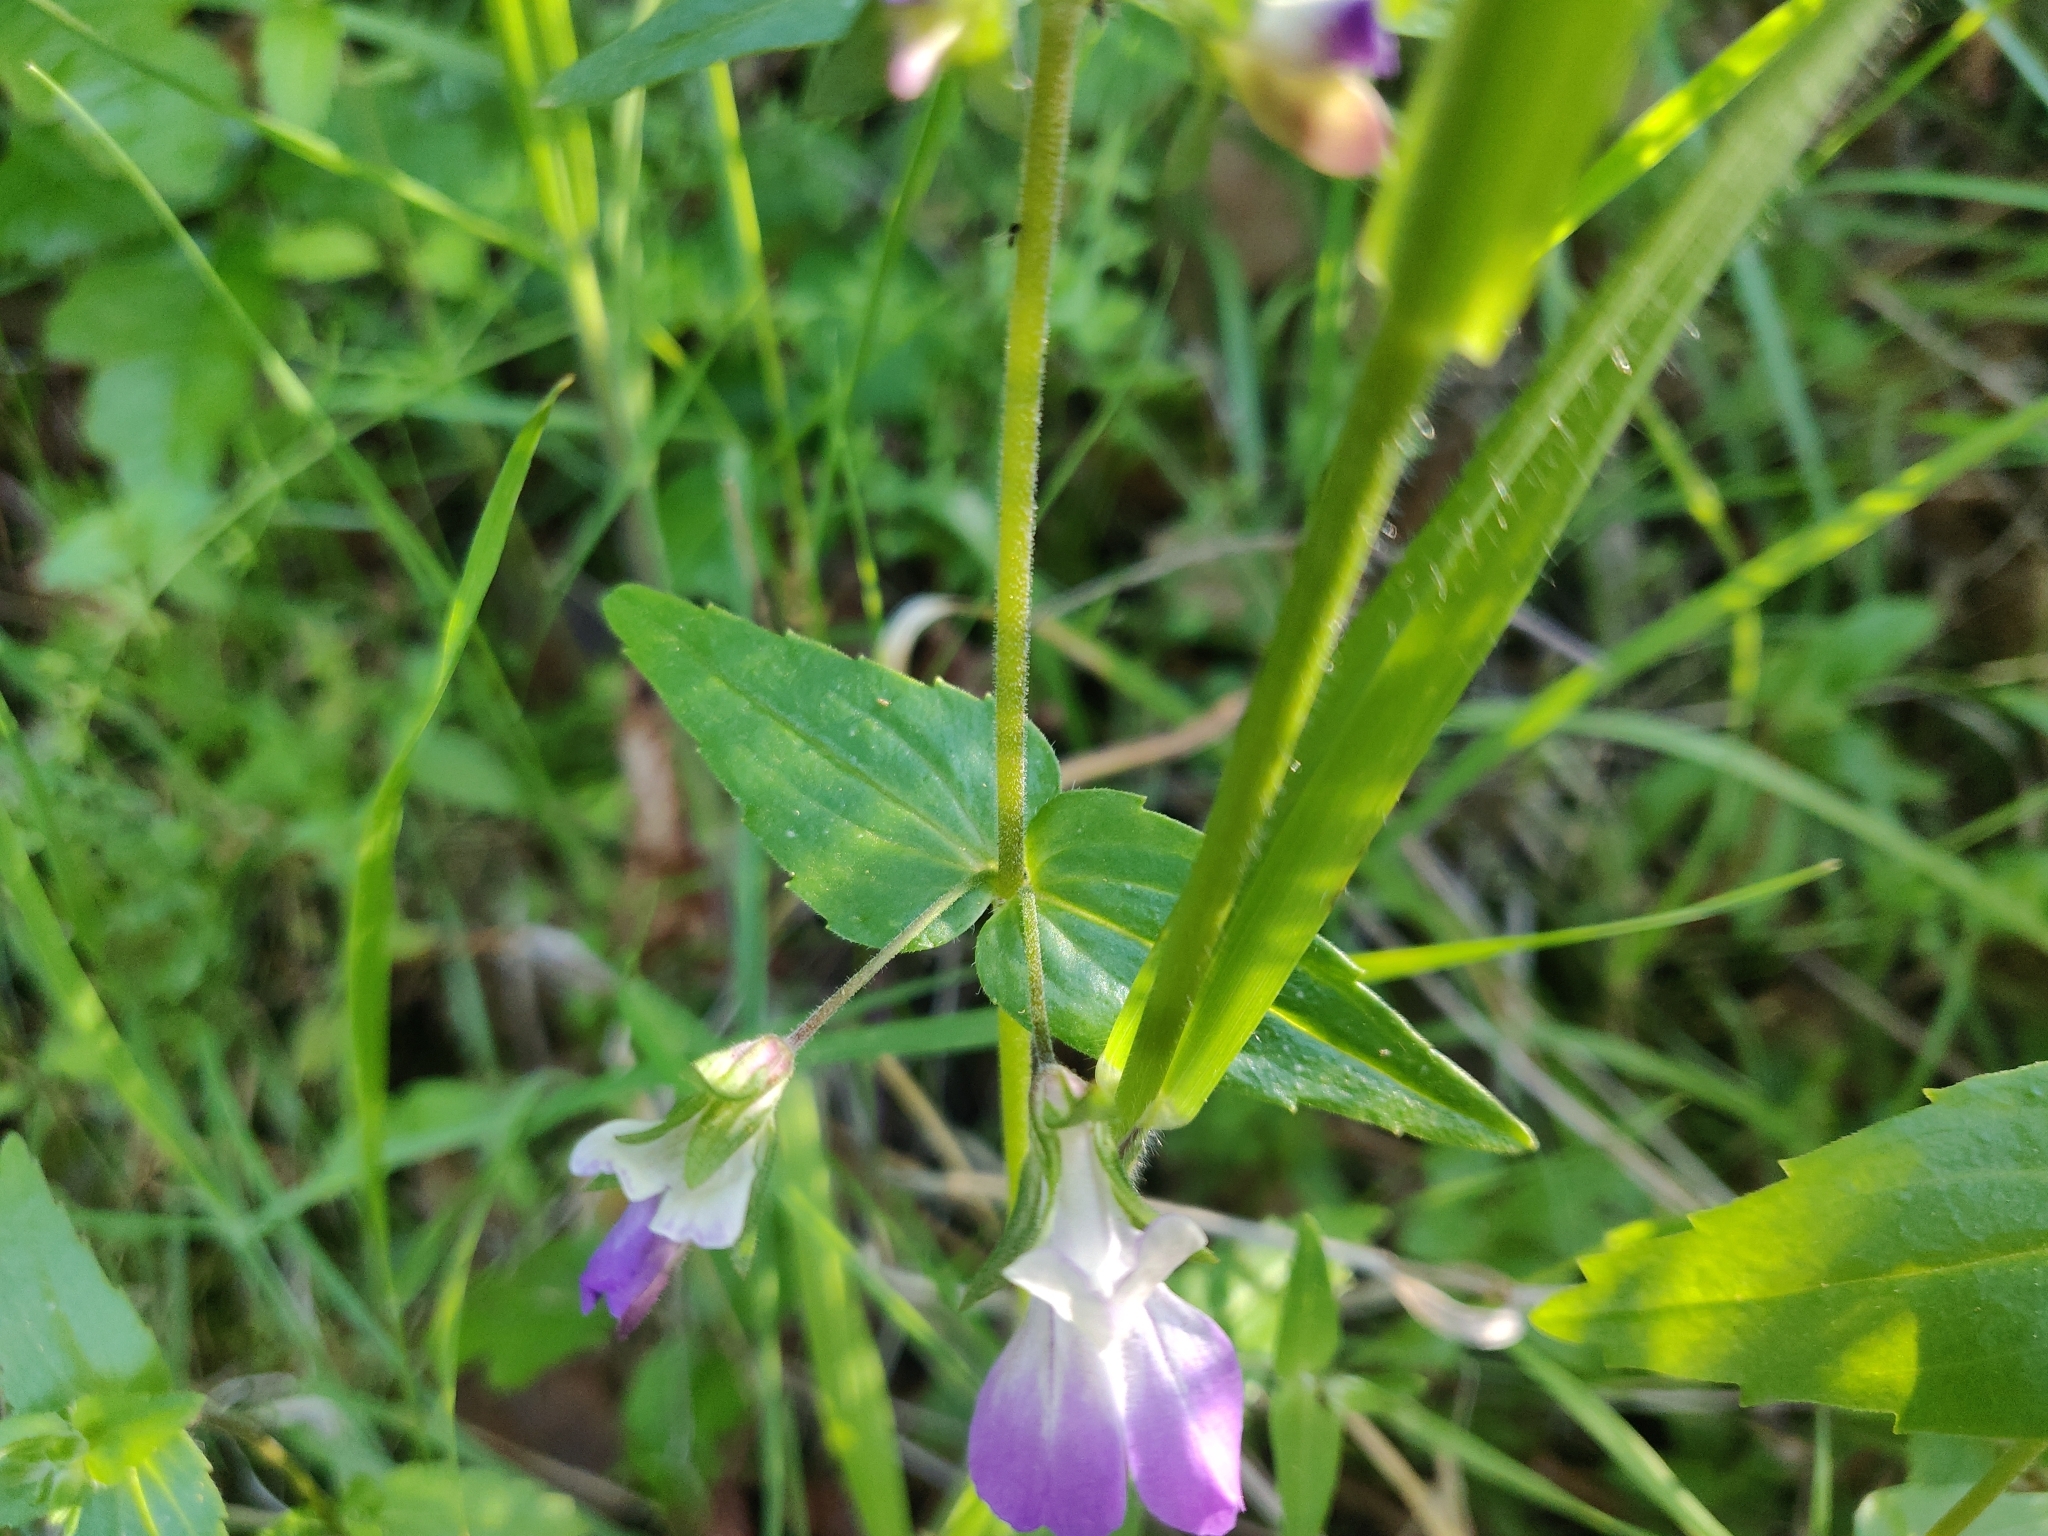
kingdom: Plantae
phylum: Tracheophyta
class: Magnoliopsida
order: Lamiales
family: Plantaginaceae
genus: Collinsia
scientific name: Collinsia multicolor
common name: San francisco collinsia
